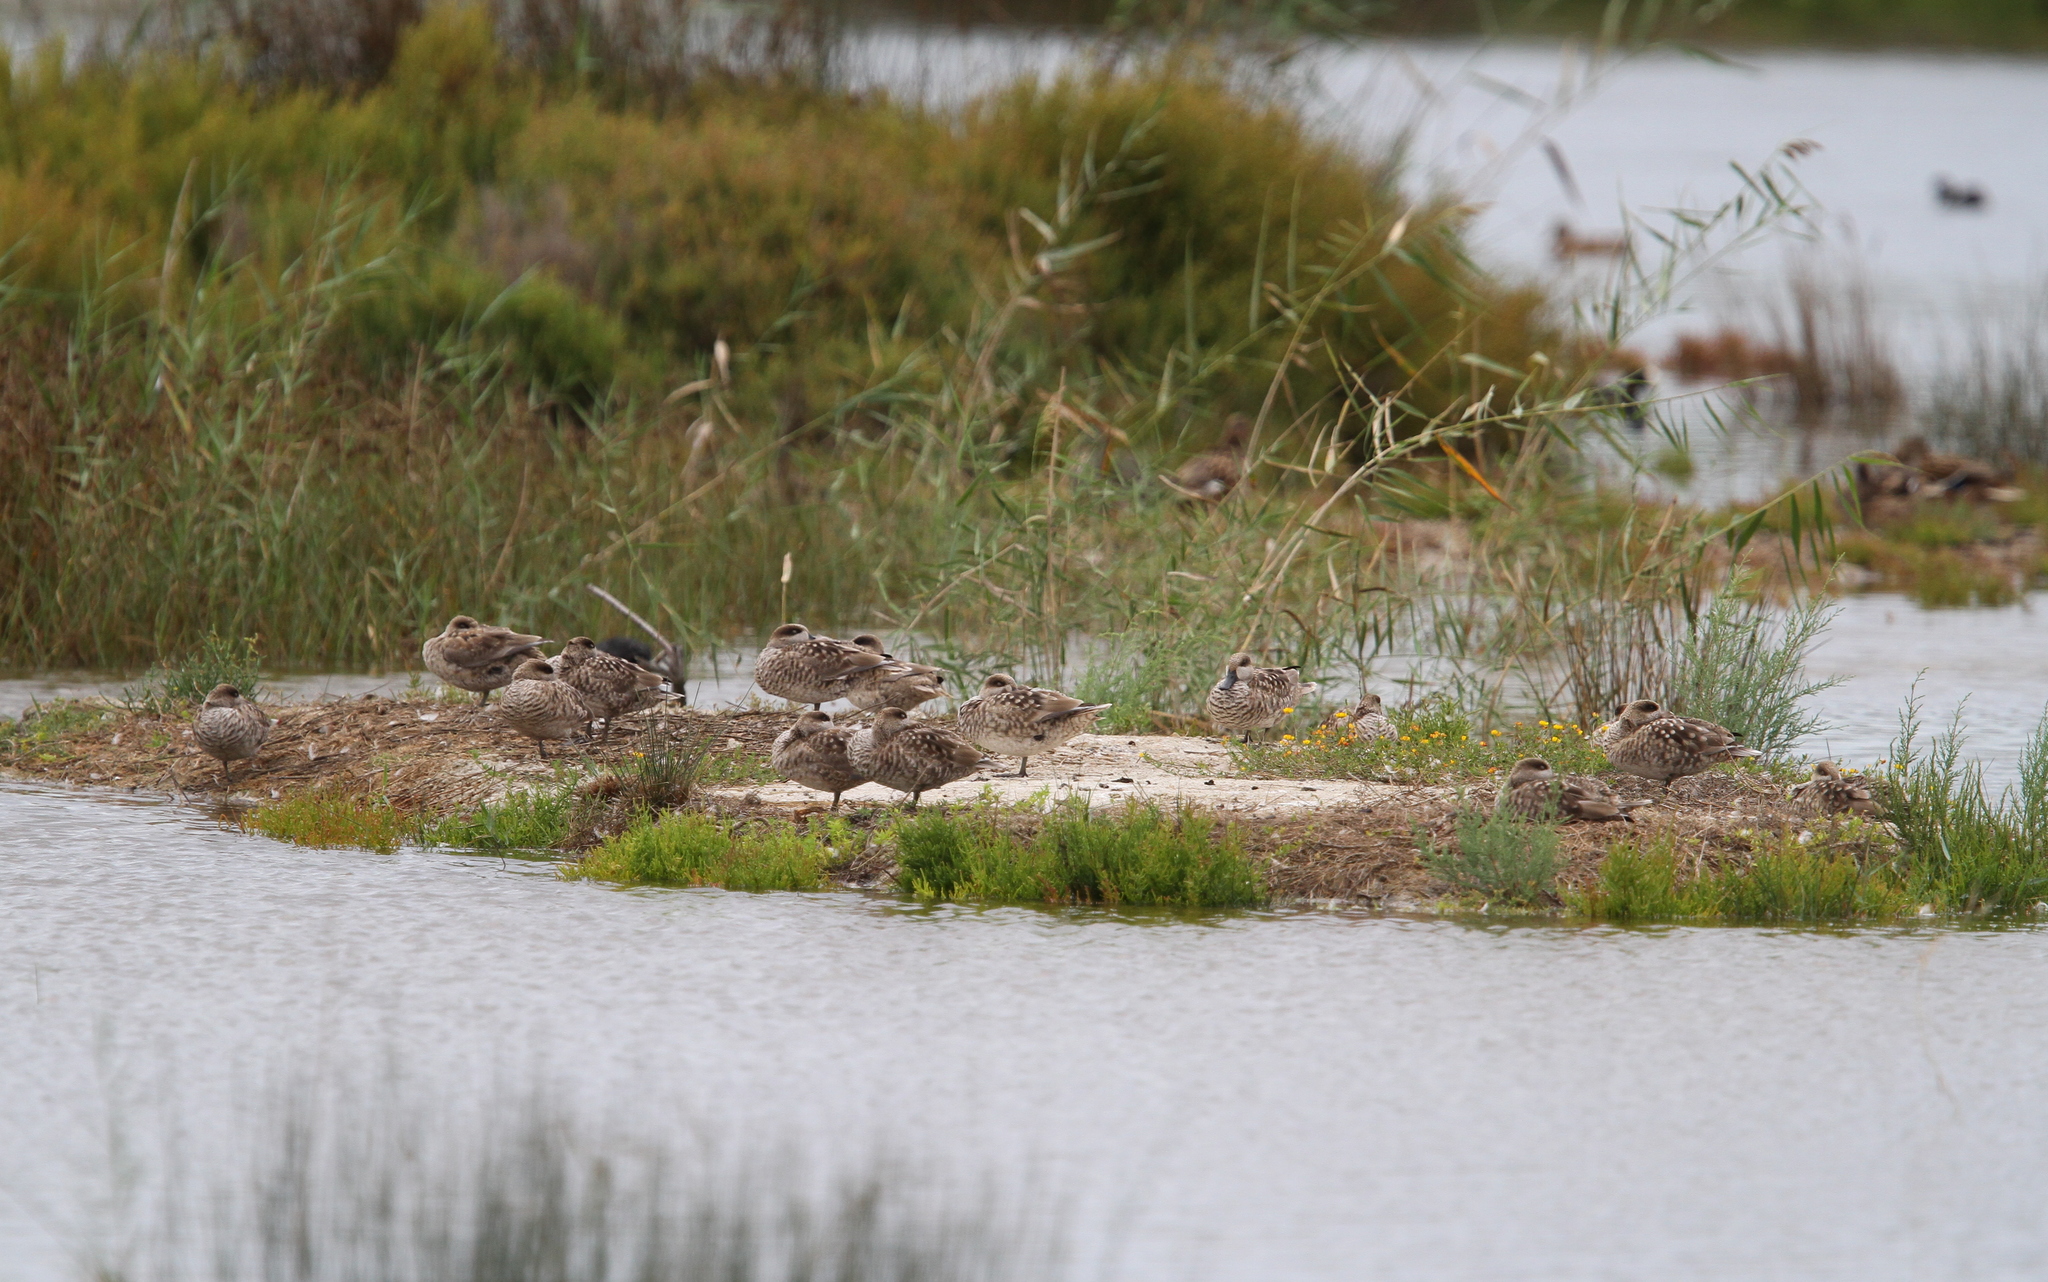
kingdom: Animalia
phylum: Chordata
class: Aves
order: Anseriformes
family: Anatidae
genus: Marmaronetta
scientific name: Marmaronetta angustirostris
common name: Marbled duck
